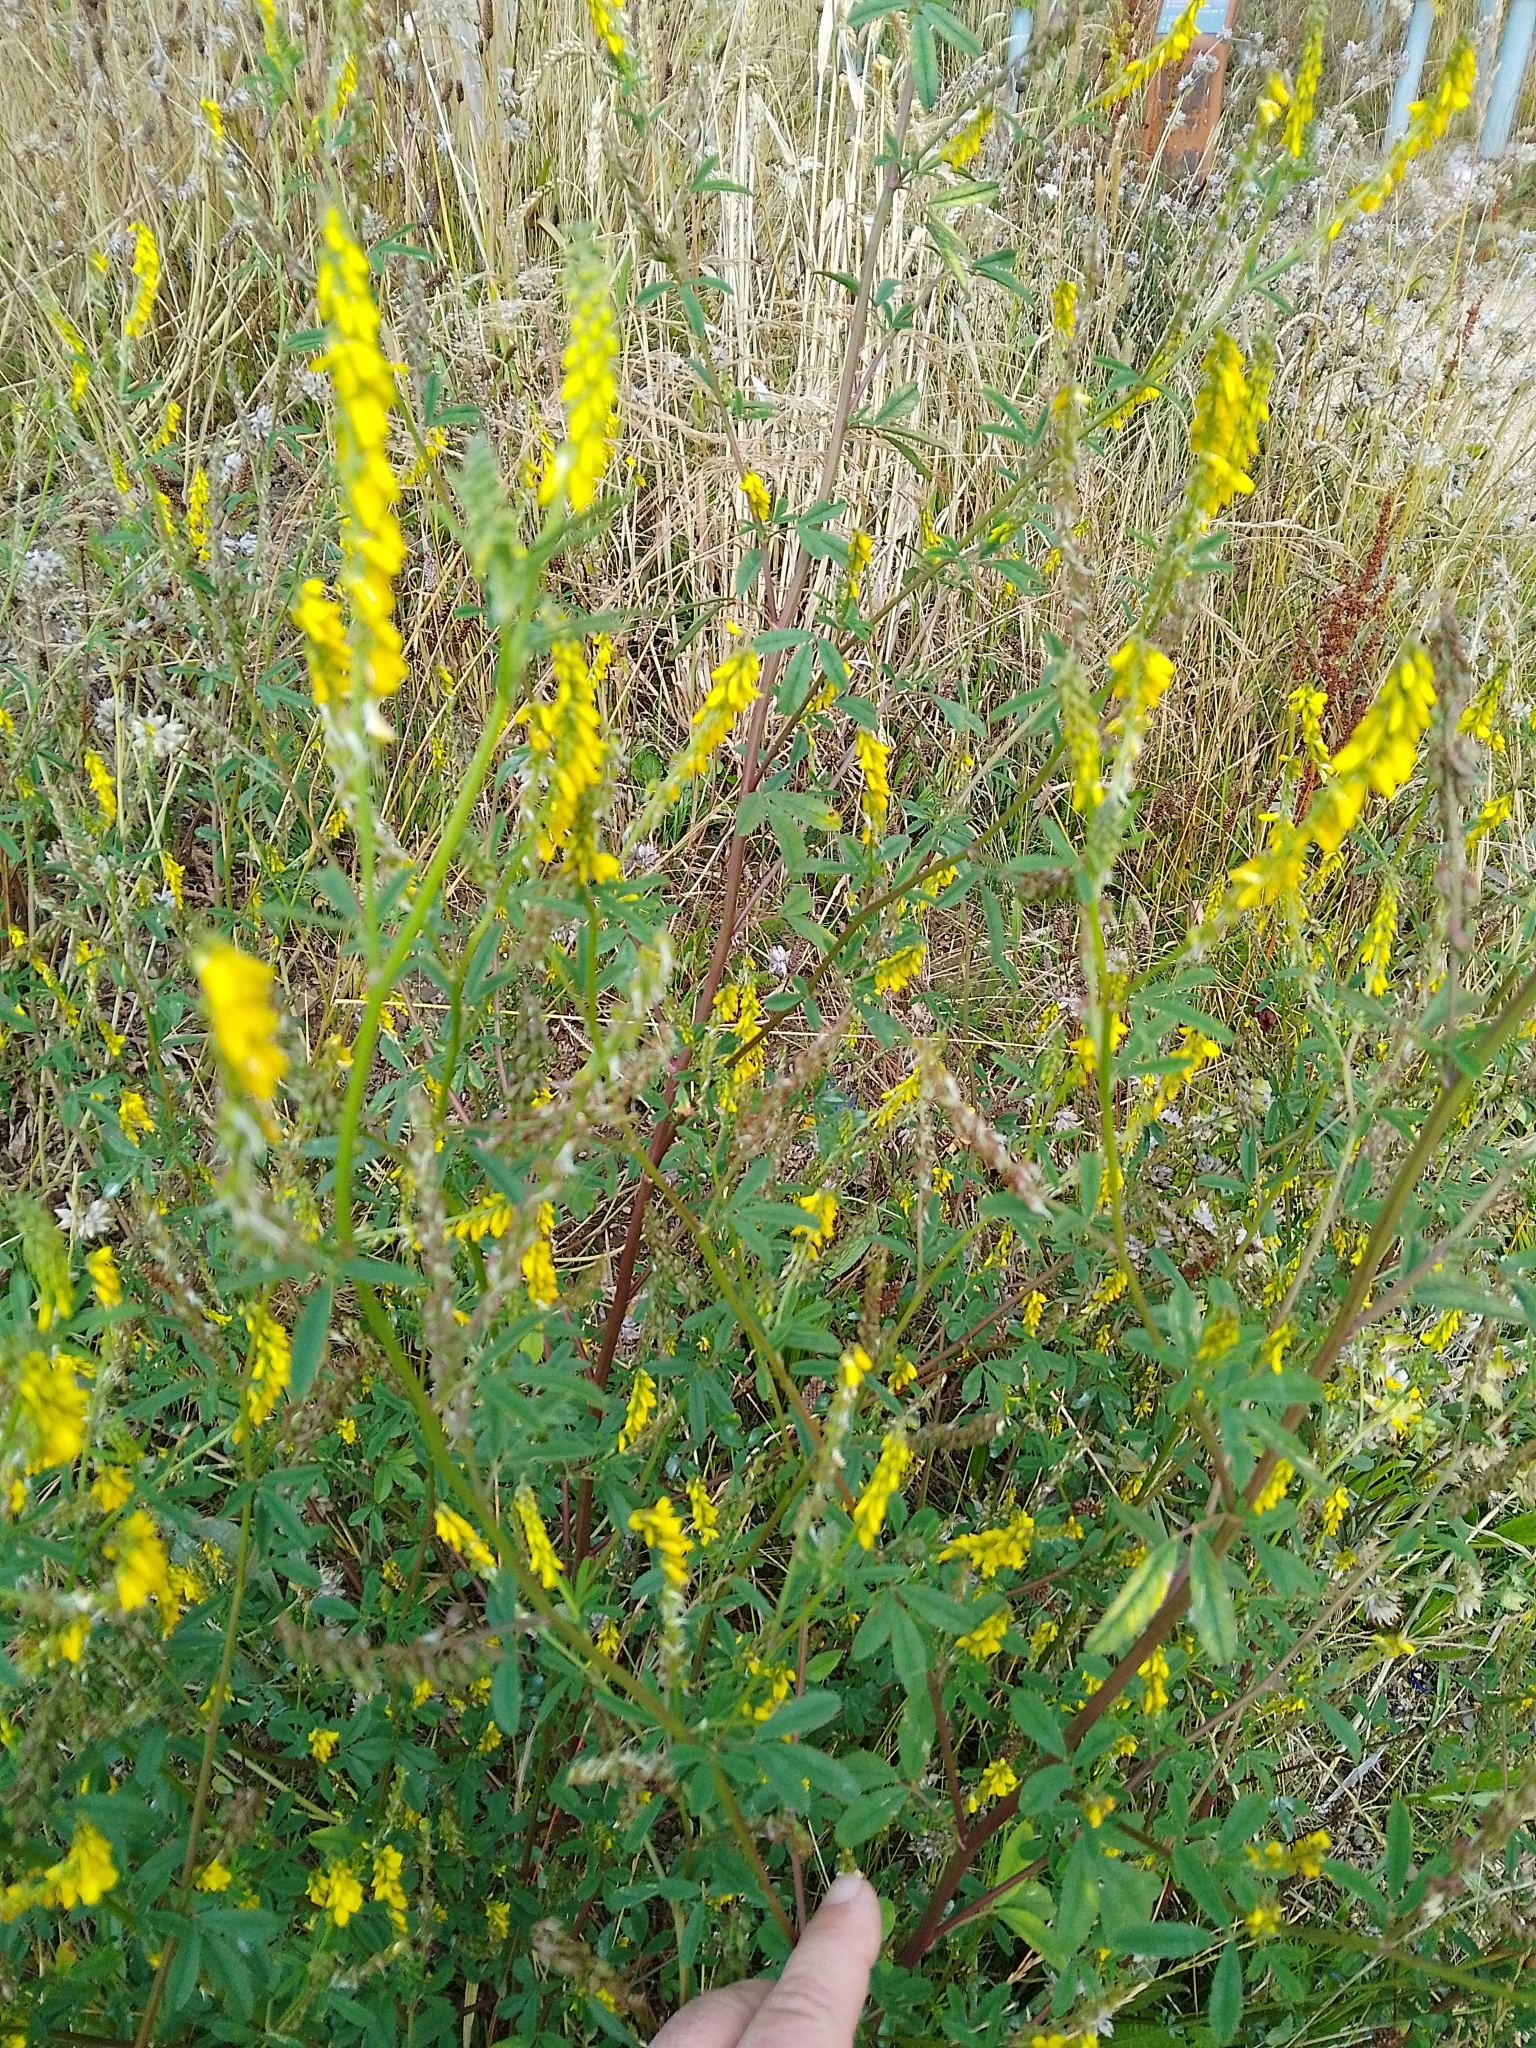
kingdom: Plantae
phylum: Tracheophyta
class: Magnoliopsida
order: Fabales
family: Fabaceae
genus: Melilotus
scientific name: Melilotus officinalis
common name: Sweetclover
